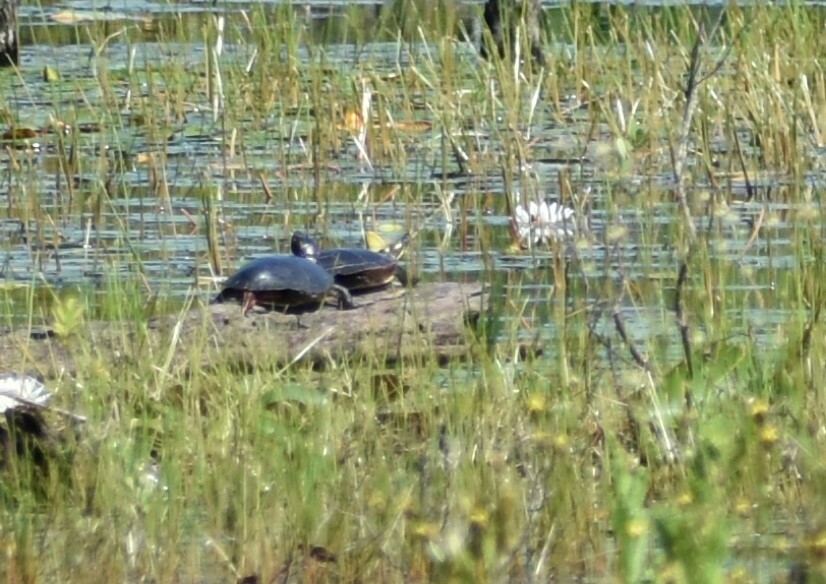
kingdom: Animalia
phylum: Chordata
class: Testudines
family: Emydidae
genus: Chrysemys
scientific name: Chrysemys picta
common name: Painted turtle
